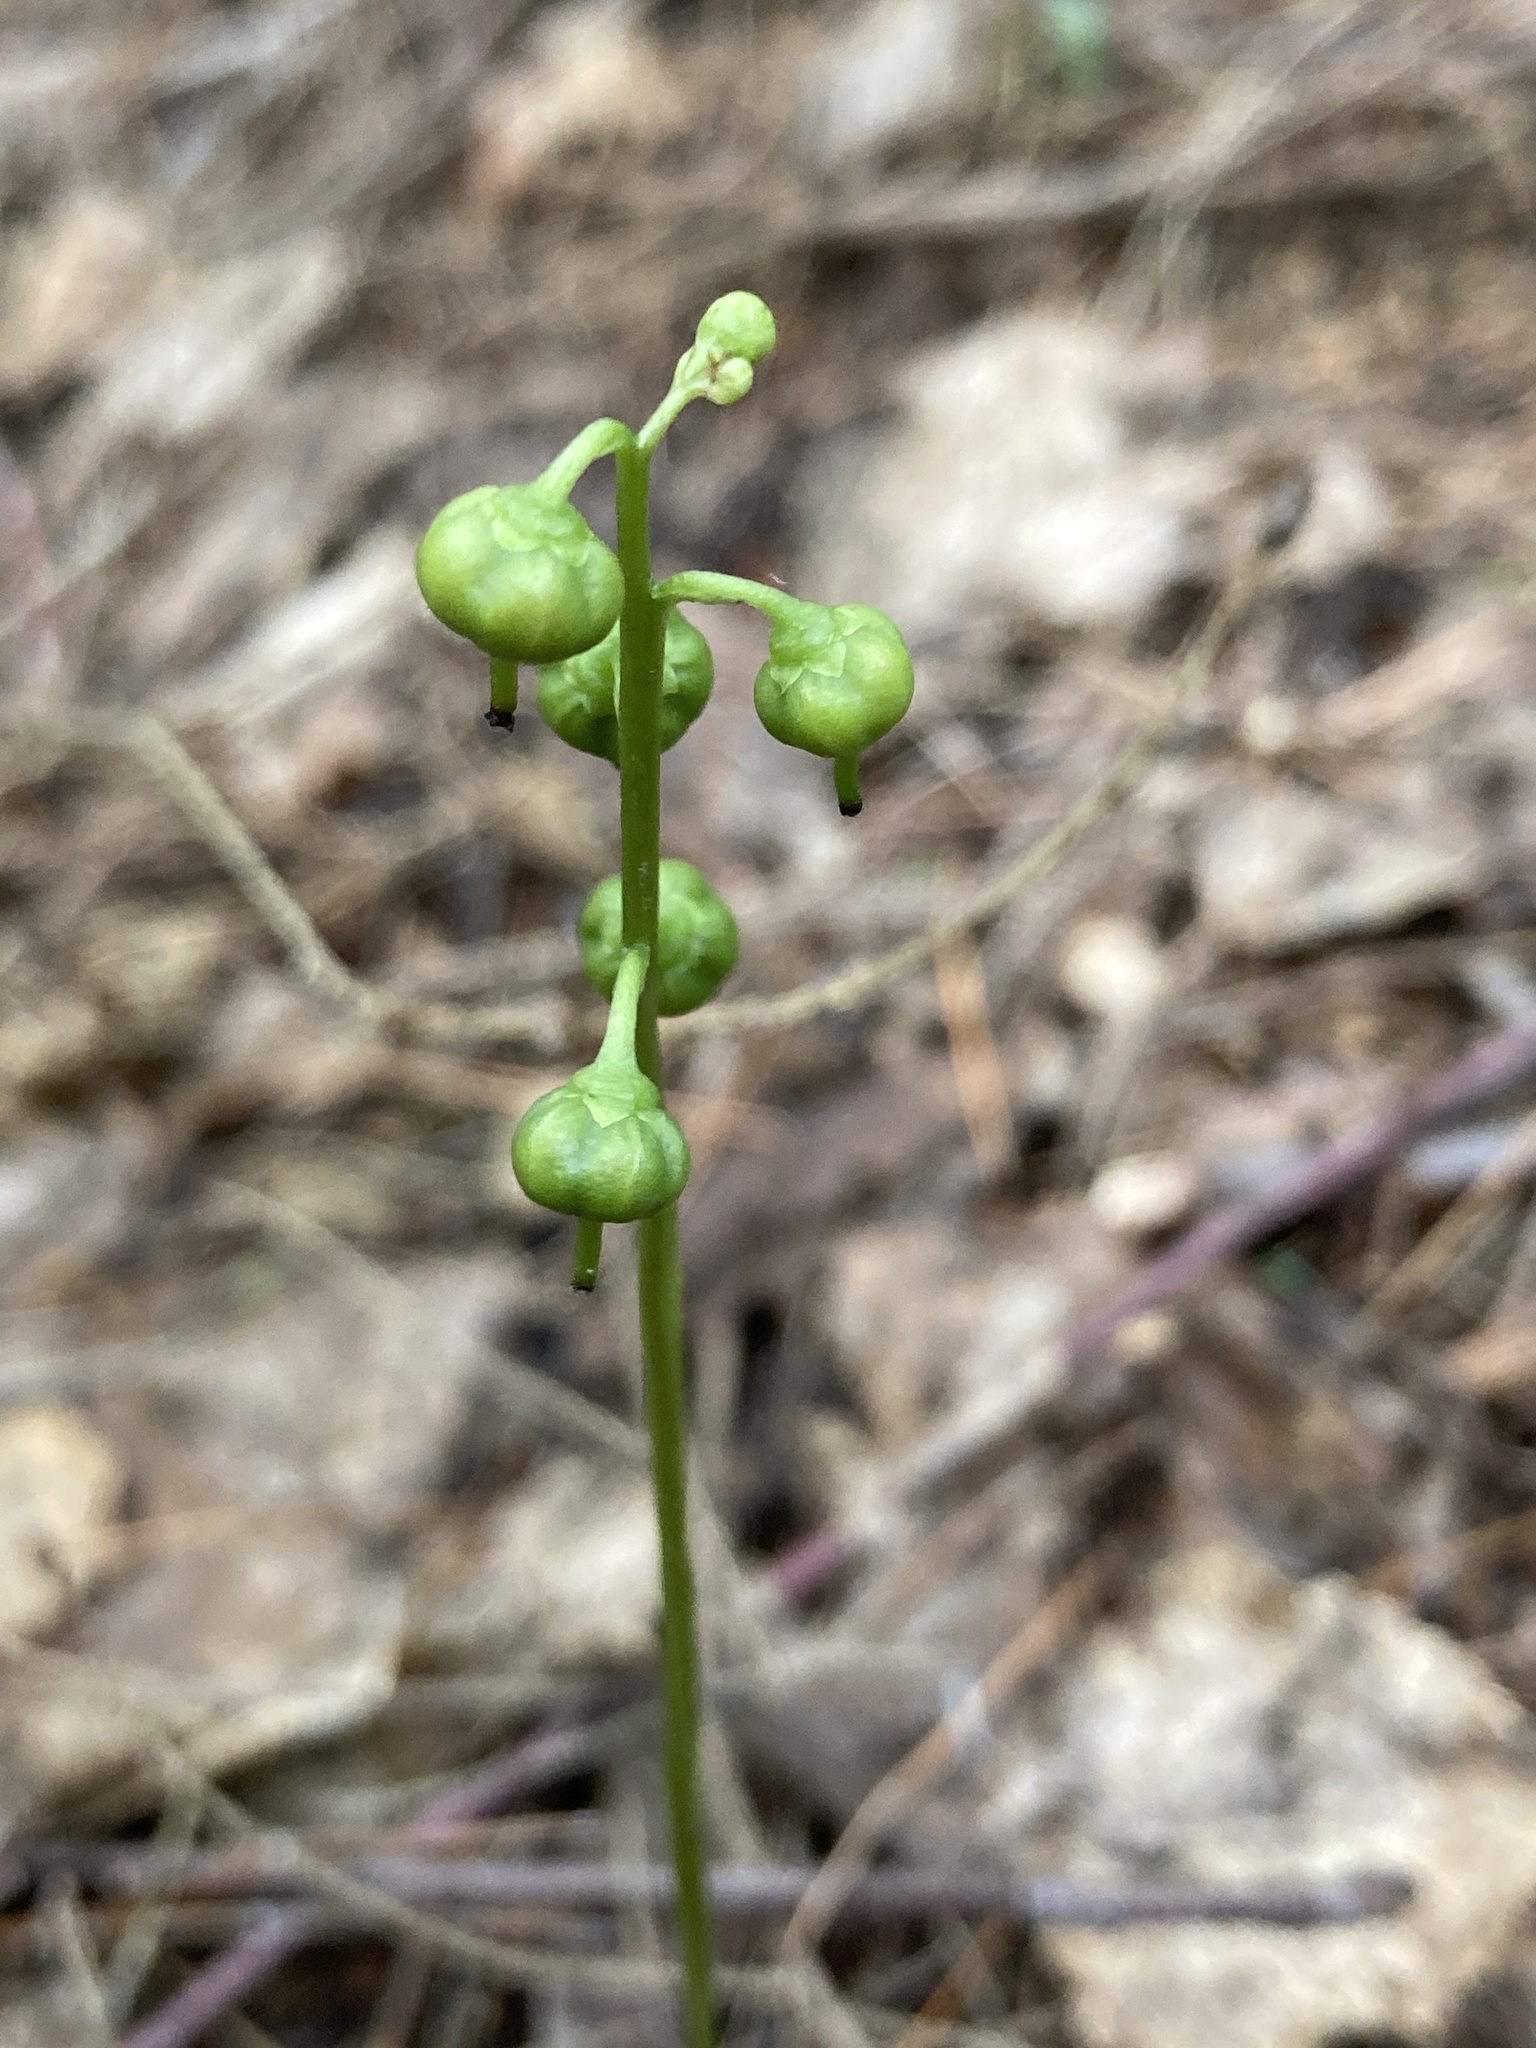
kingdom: Plantae
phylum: Tracheophyta
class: Magnoliopsida
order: Ericales
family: Ericaceae
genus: Pyrola
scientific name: Pyrola chlorantha
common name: Green wintergreen
